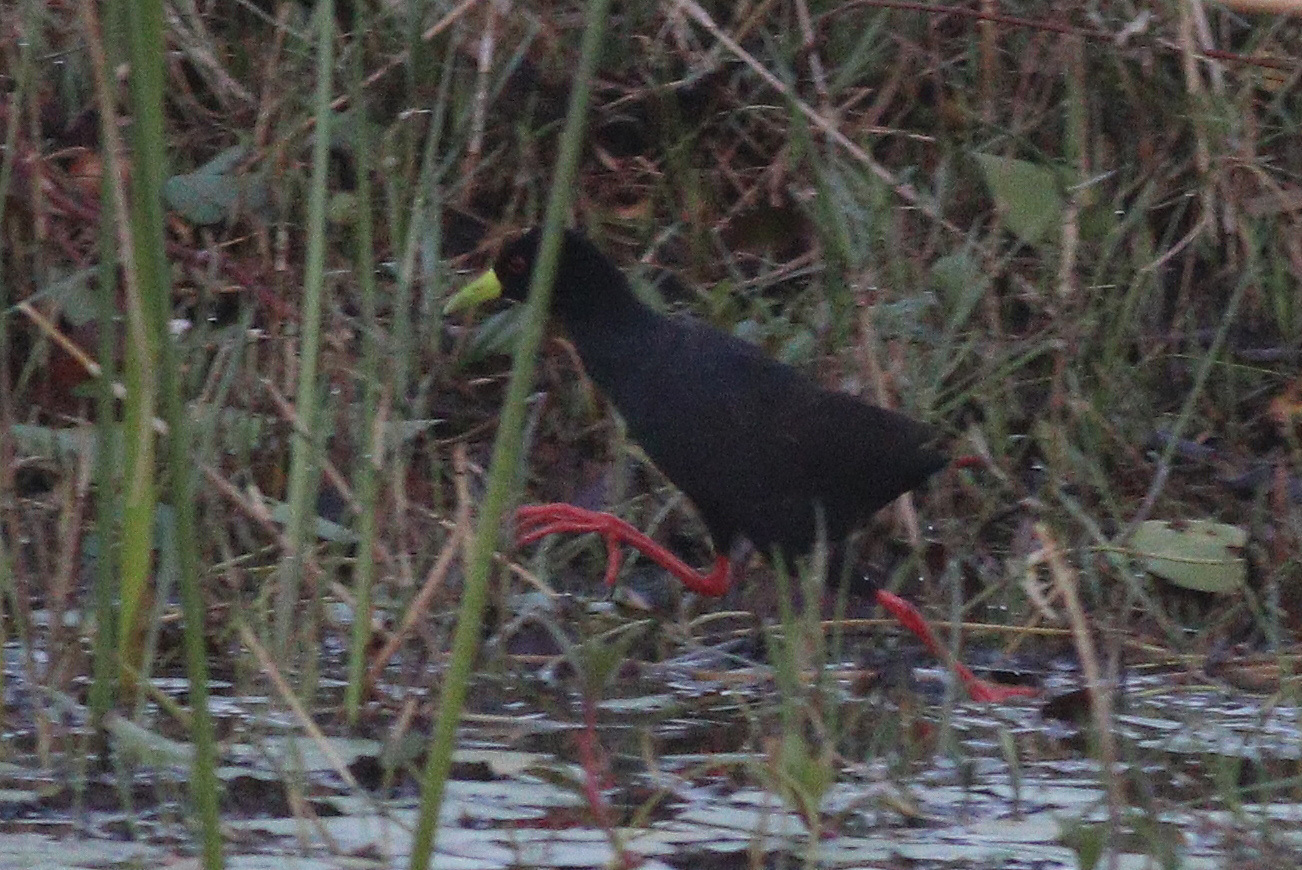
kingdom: Animalia
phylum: Chordata
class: Aves
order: Gruiformes
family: Rallidae
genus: Amaurornis
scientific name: Amaurornis flavirostra
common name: Black crake
